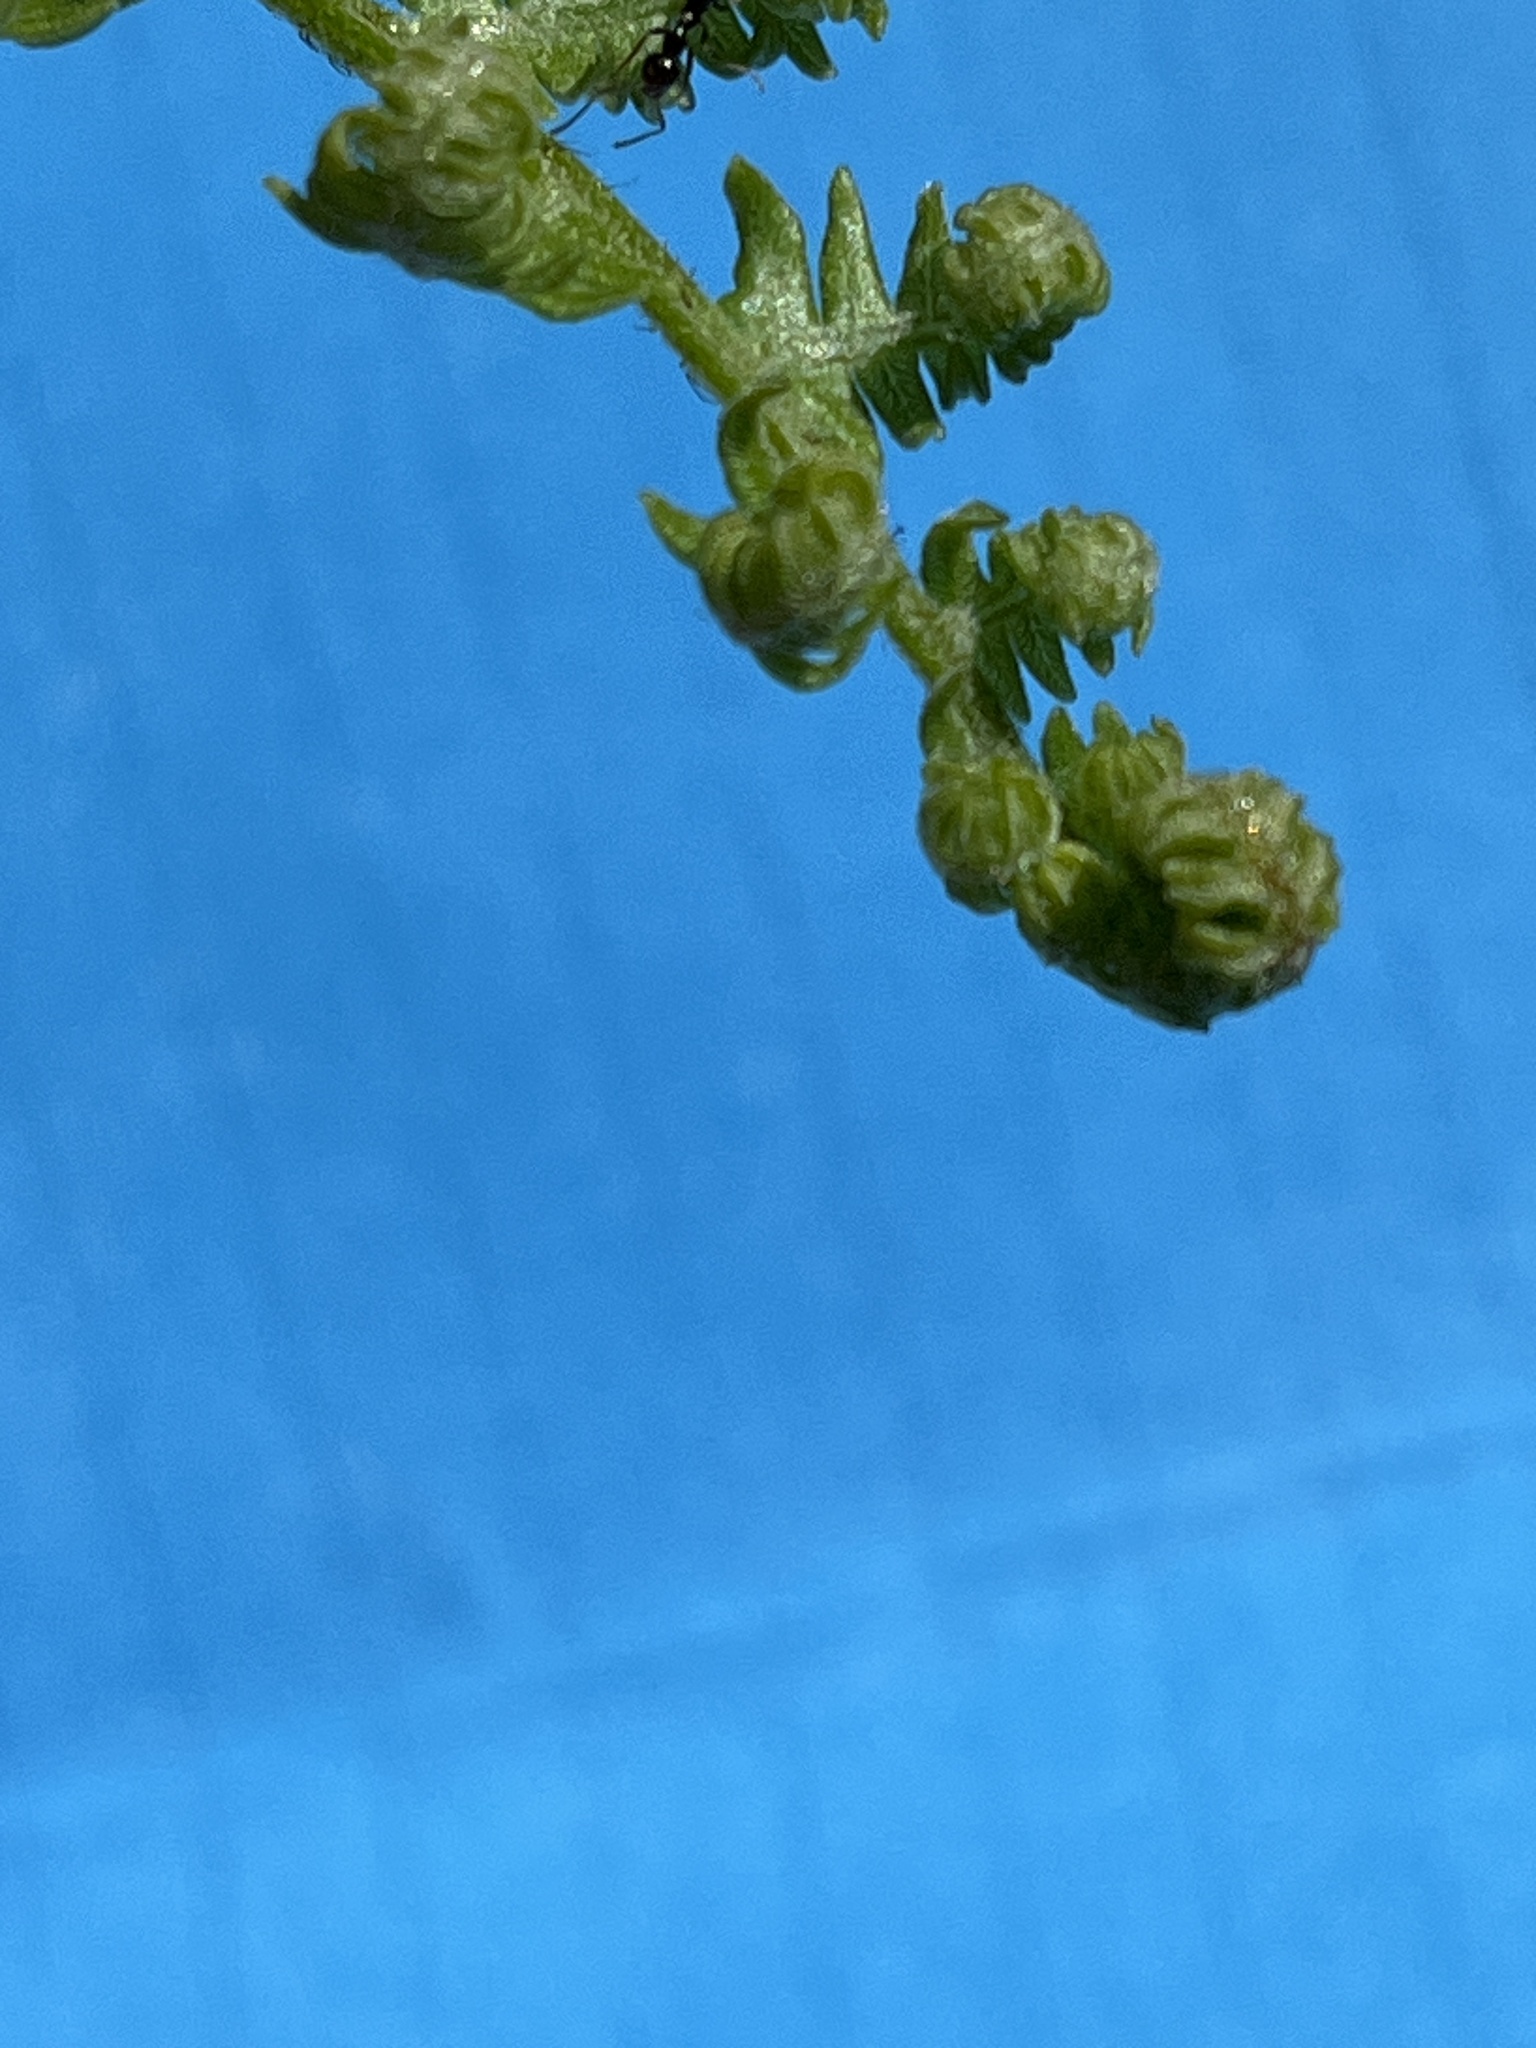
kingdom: Plantae
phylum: Tracheophyta
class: Polypodiopsida
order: Polypodiales
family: Dennstaedtiaceae
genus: Pteridium
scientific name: Pteridium aquilinum
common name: Bracken
